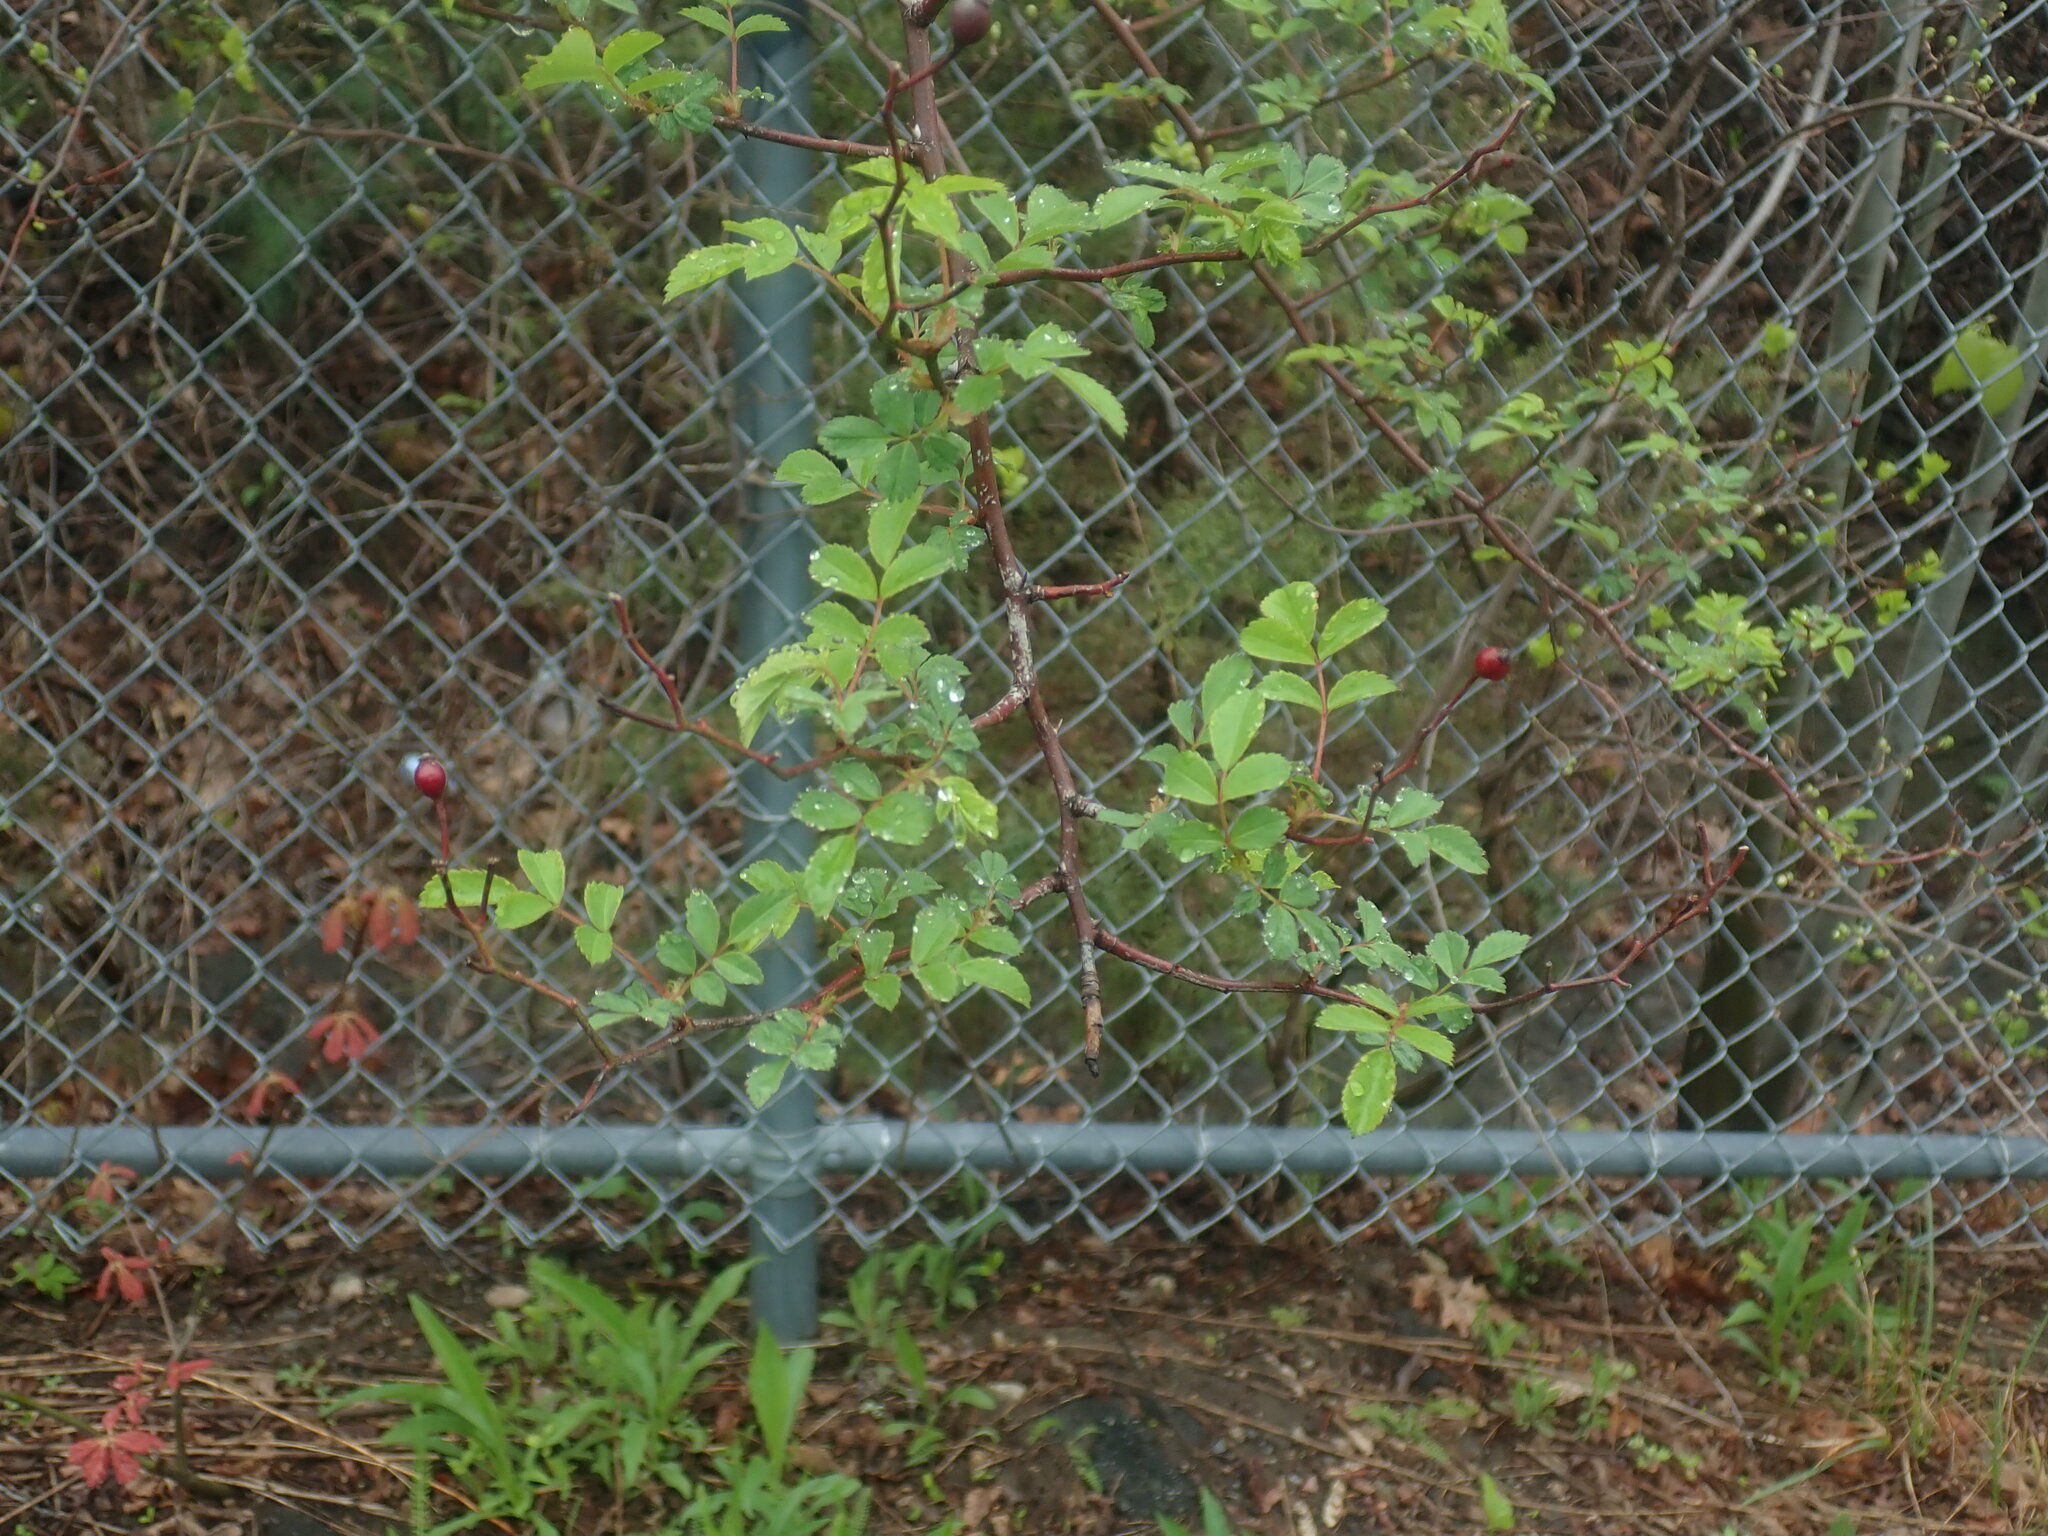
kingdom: Plantae
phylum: Tracheophyta
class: Magnoliopsida
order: Rosales
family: Rosaceae
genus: Rosa
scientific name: Rosa multiflora
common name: Multiflora rose
